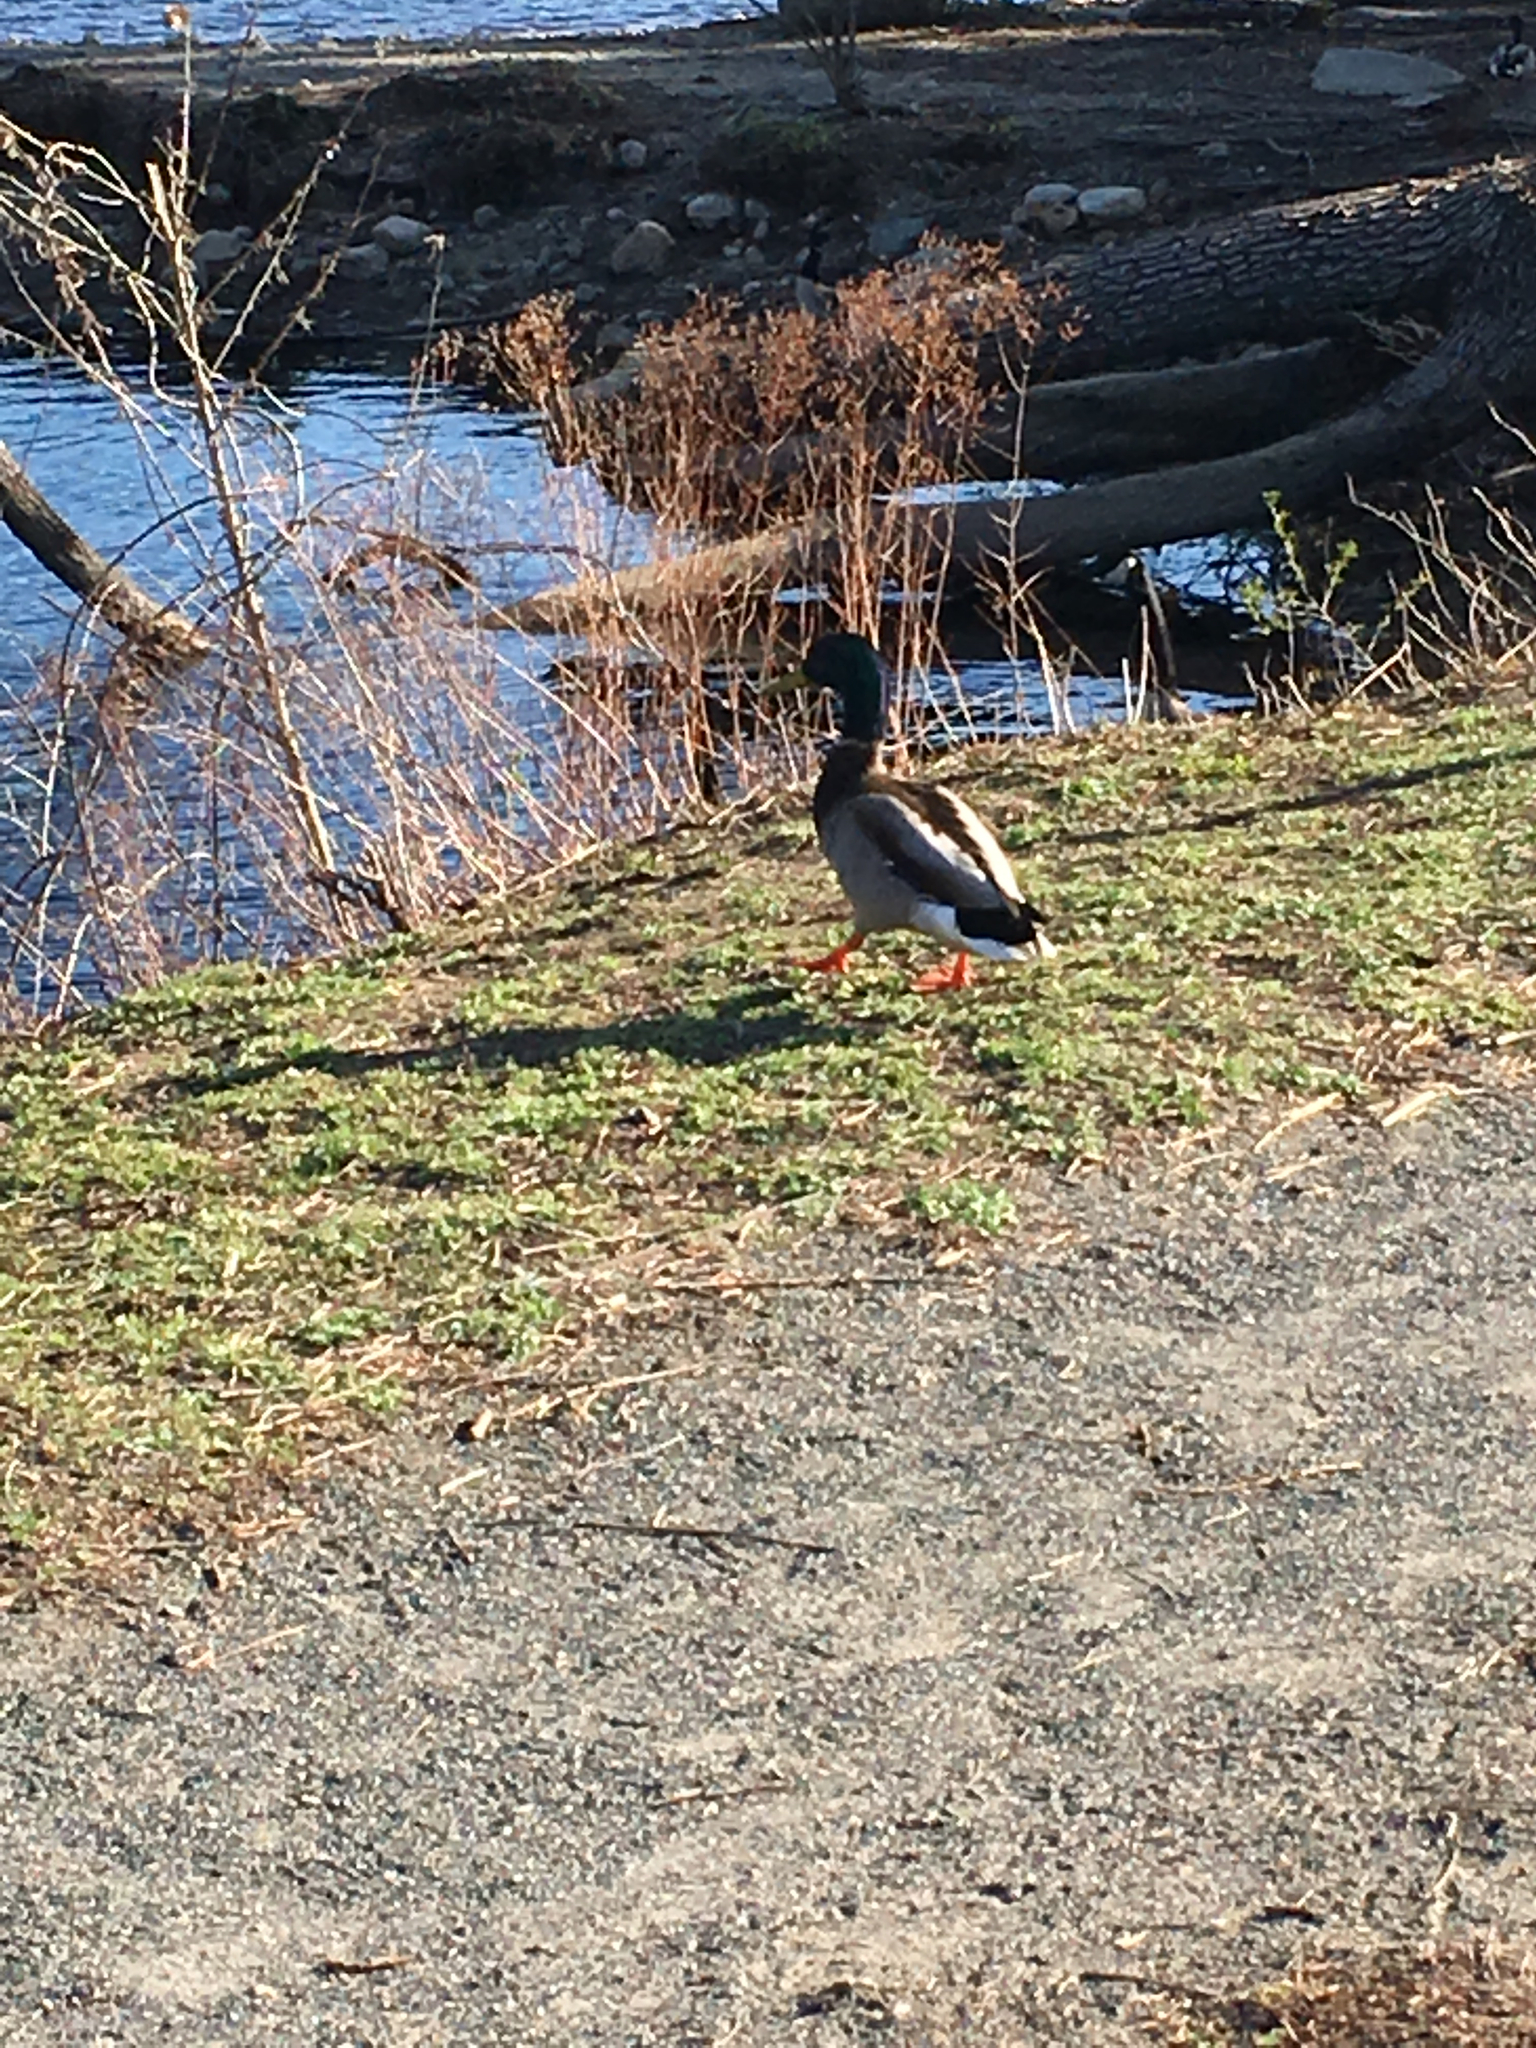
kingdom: Animalia
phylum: Chordata
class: Aves
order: Anseriformes
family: Anatidae
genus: Anas
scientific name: Anas platyrhynchos
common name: Mallard
